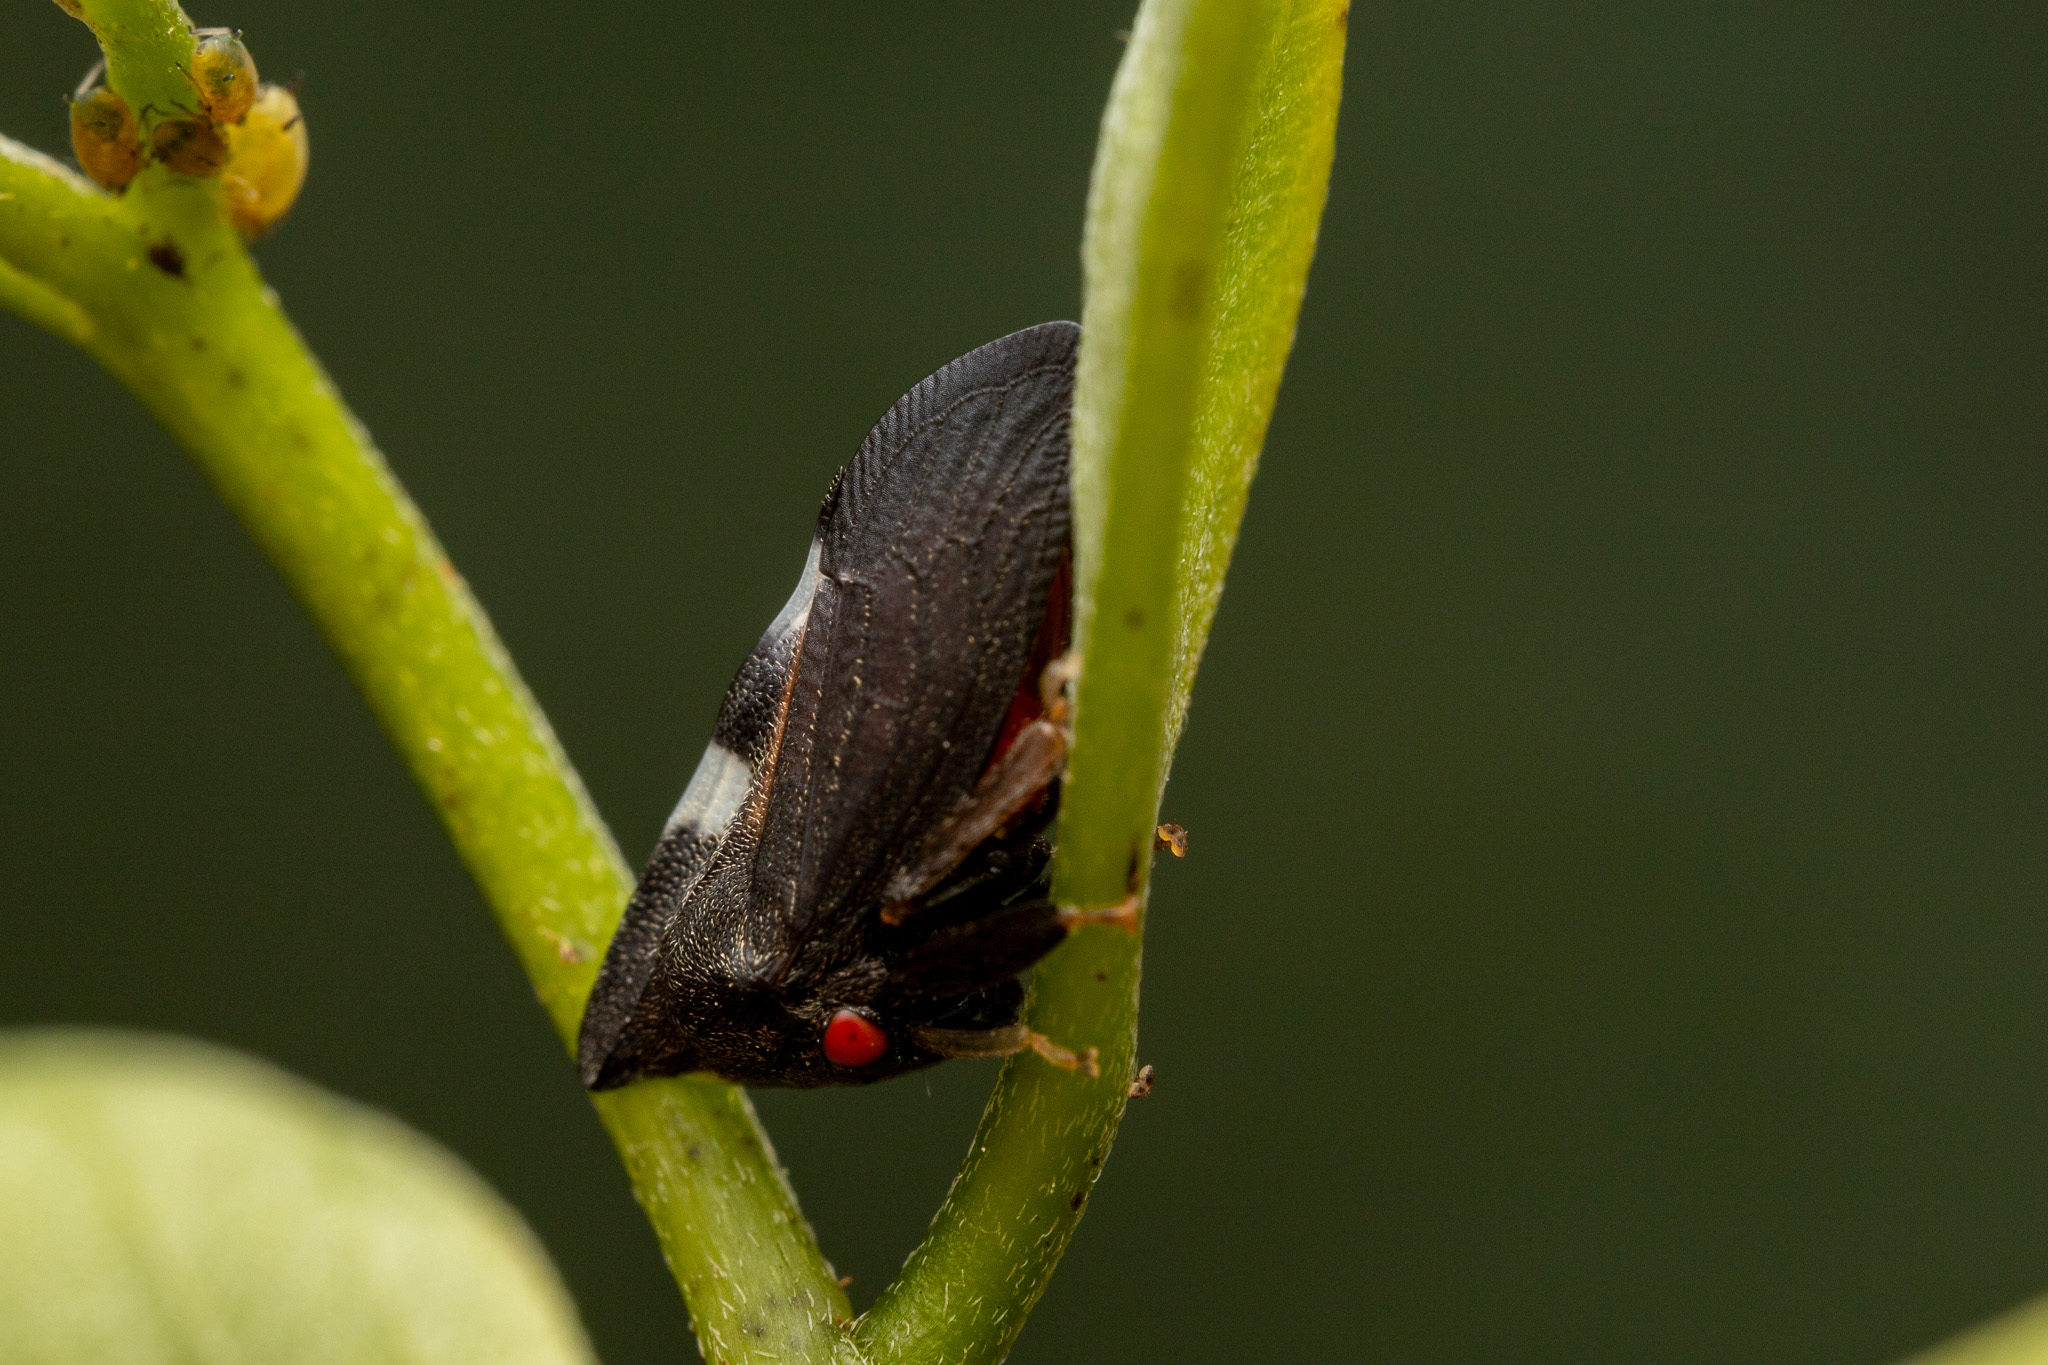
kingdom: Animalia
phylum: Arthropoda
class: Insecta
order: Hemiptera
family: Membracidae
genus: Enchenopa
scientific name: Enchenopa quadricolor
